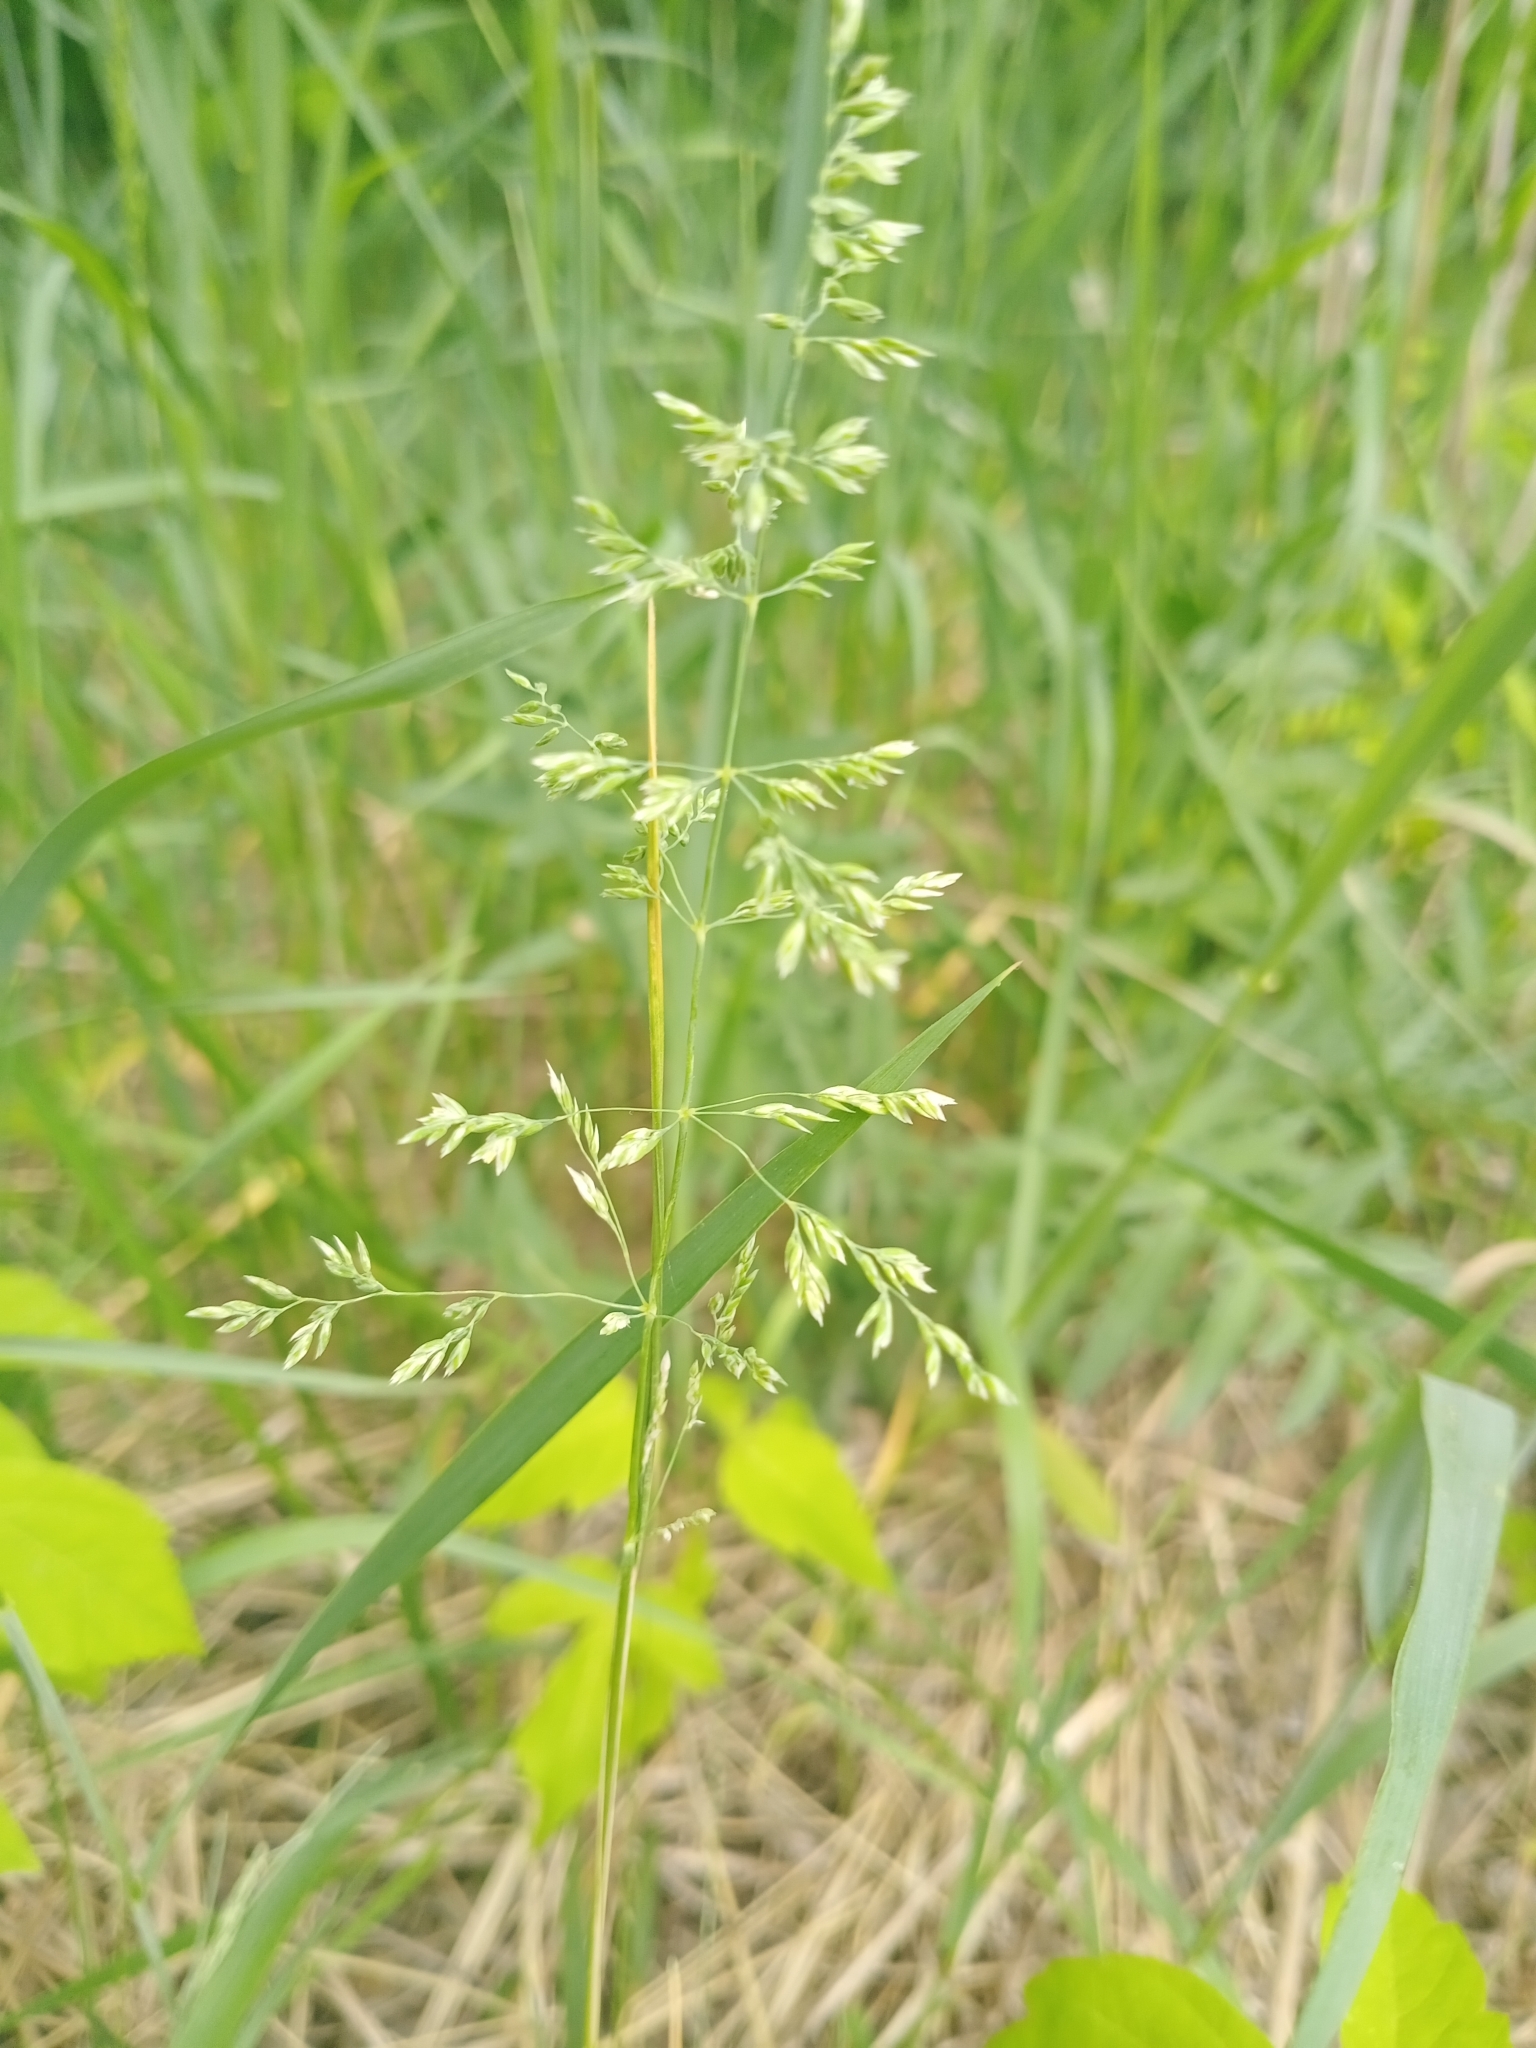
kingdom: Plantae
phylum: Tracheophyta
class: Liliopsida
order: Poales
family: Poaceae
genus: Poa
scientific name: Poa annua
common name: Annual bluegrass
